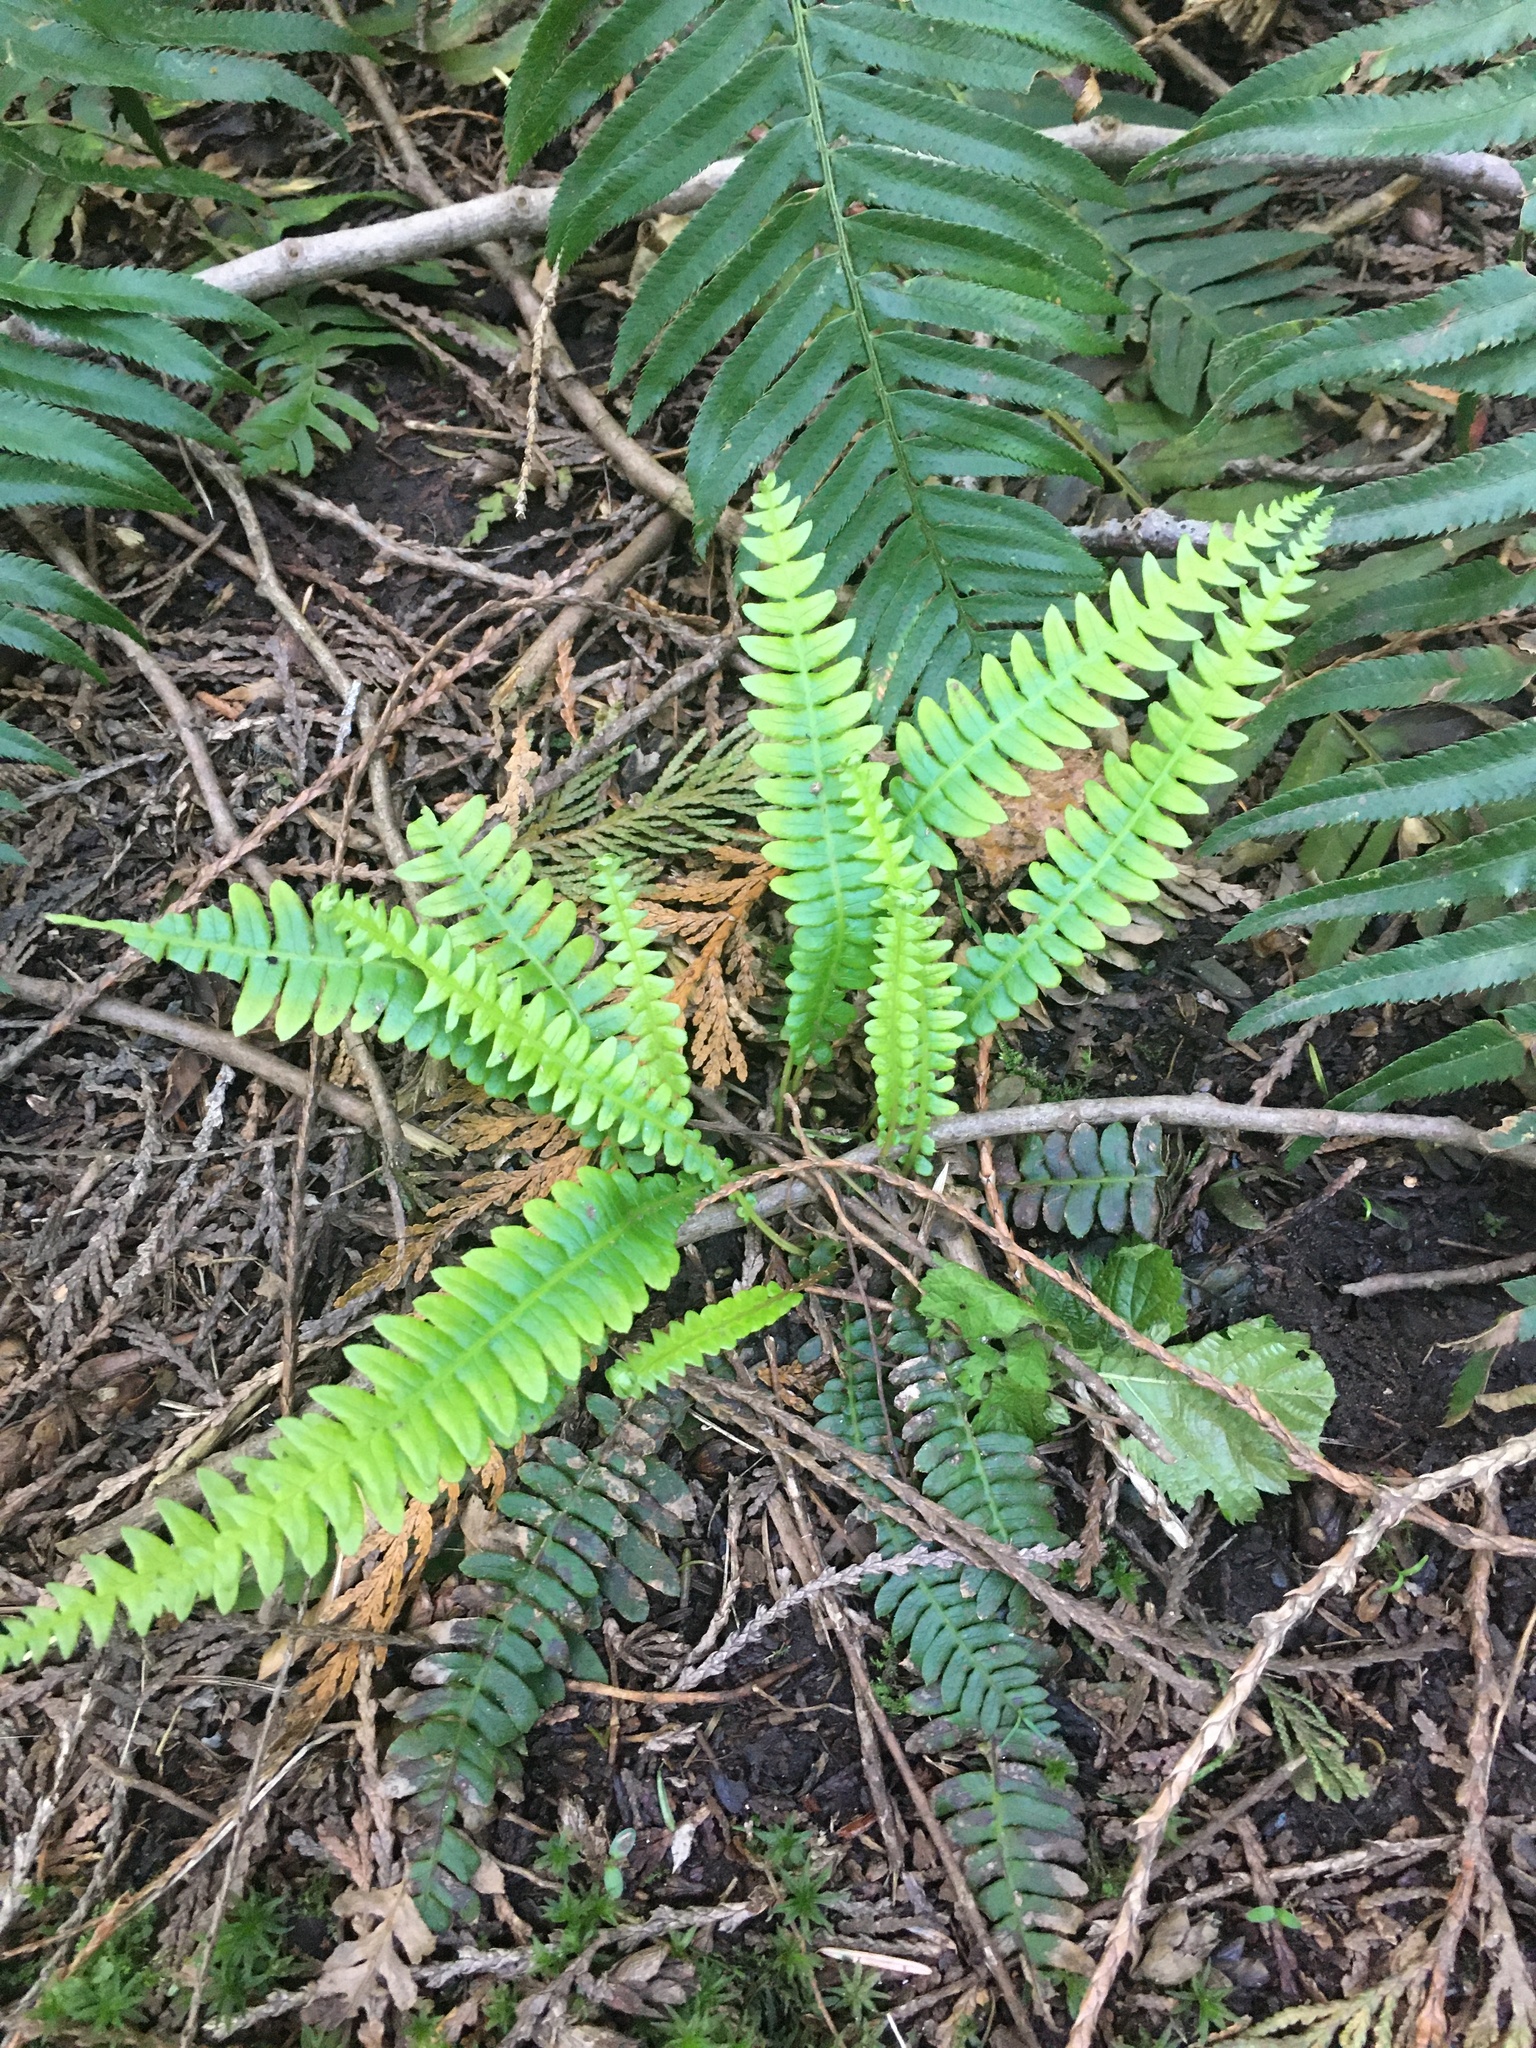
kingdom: Plantae
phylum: Tracheophyta
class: Polypodiopsida
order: Polypodiales
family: Blechnaceae
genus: Struthiopteris
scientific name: Struthiopteris spicant
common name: Deer fern
